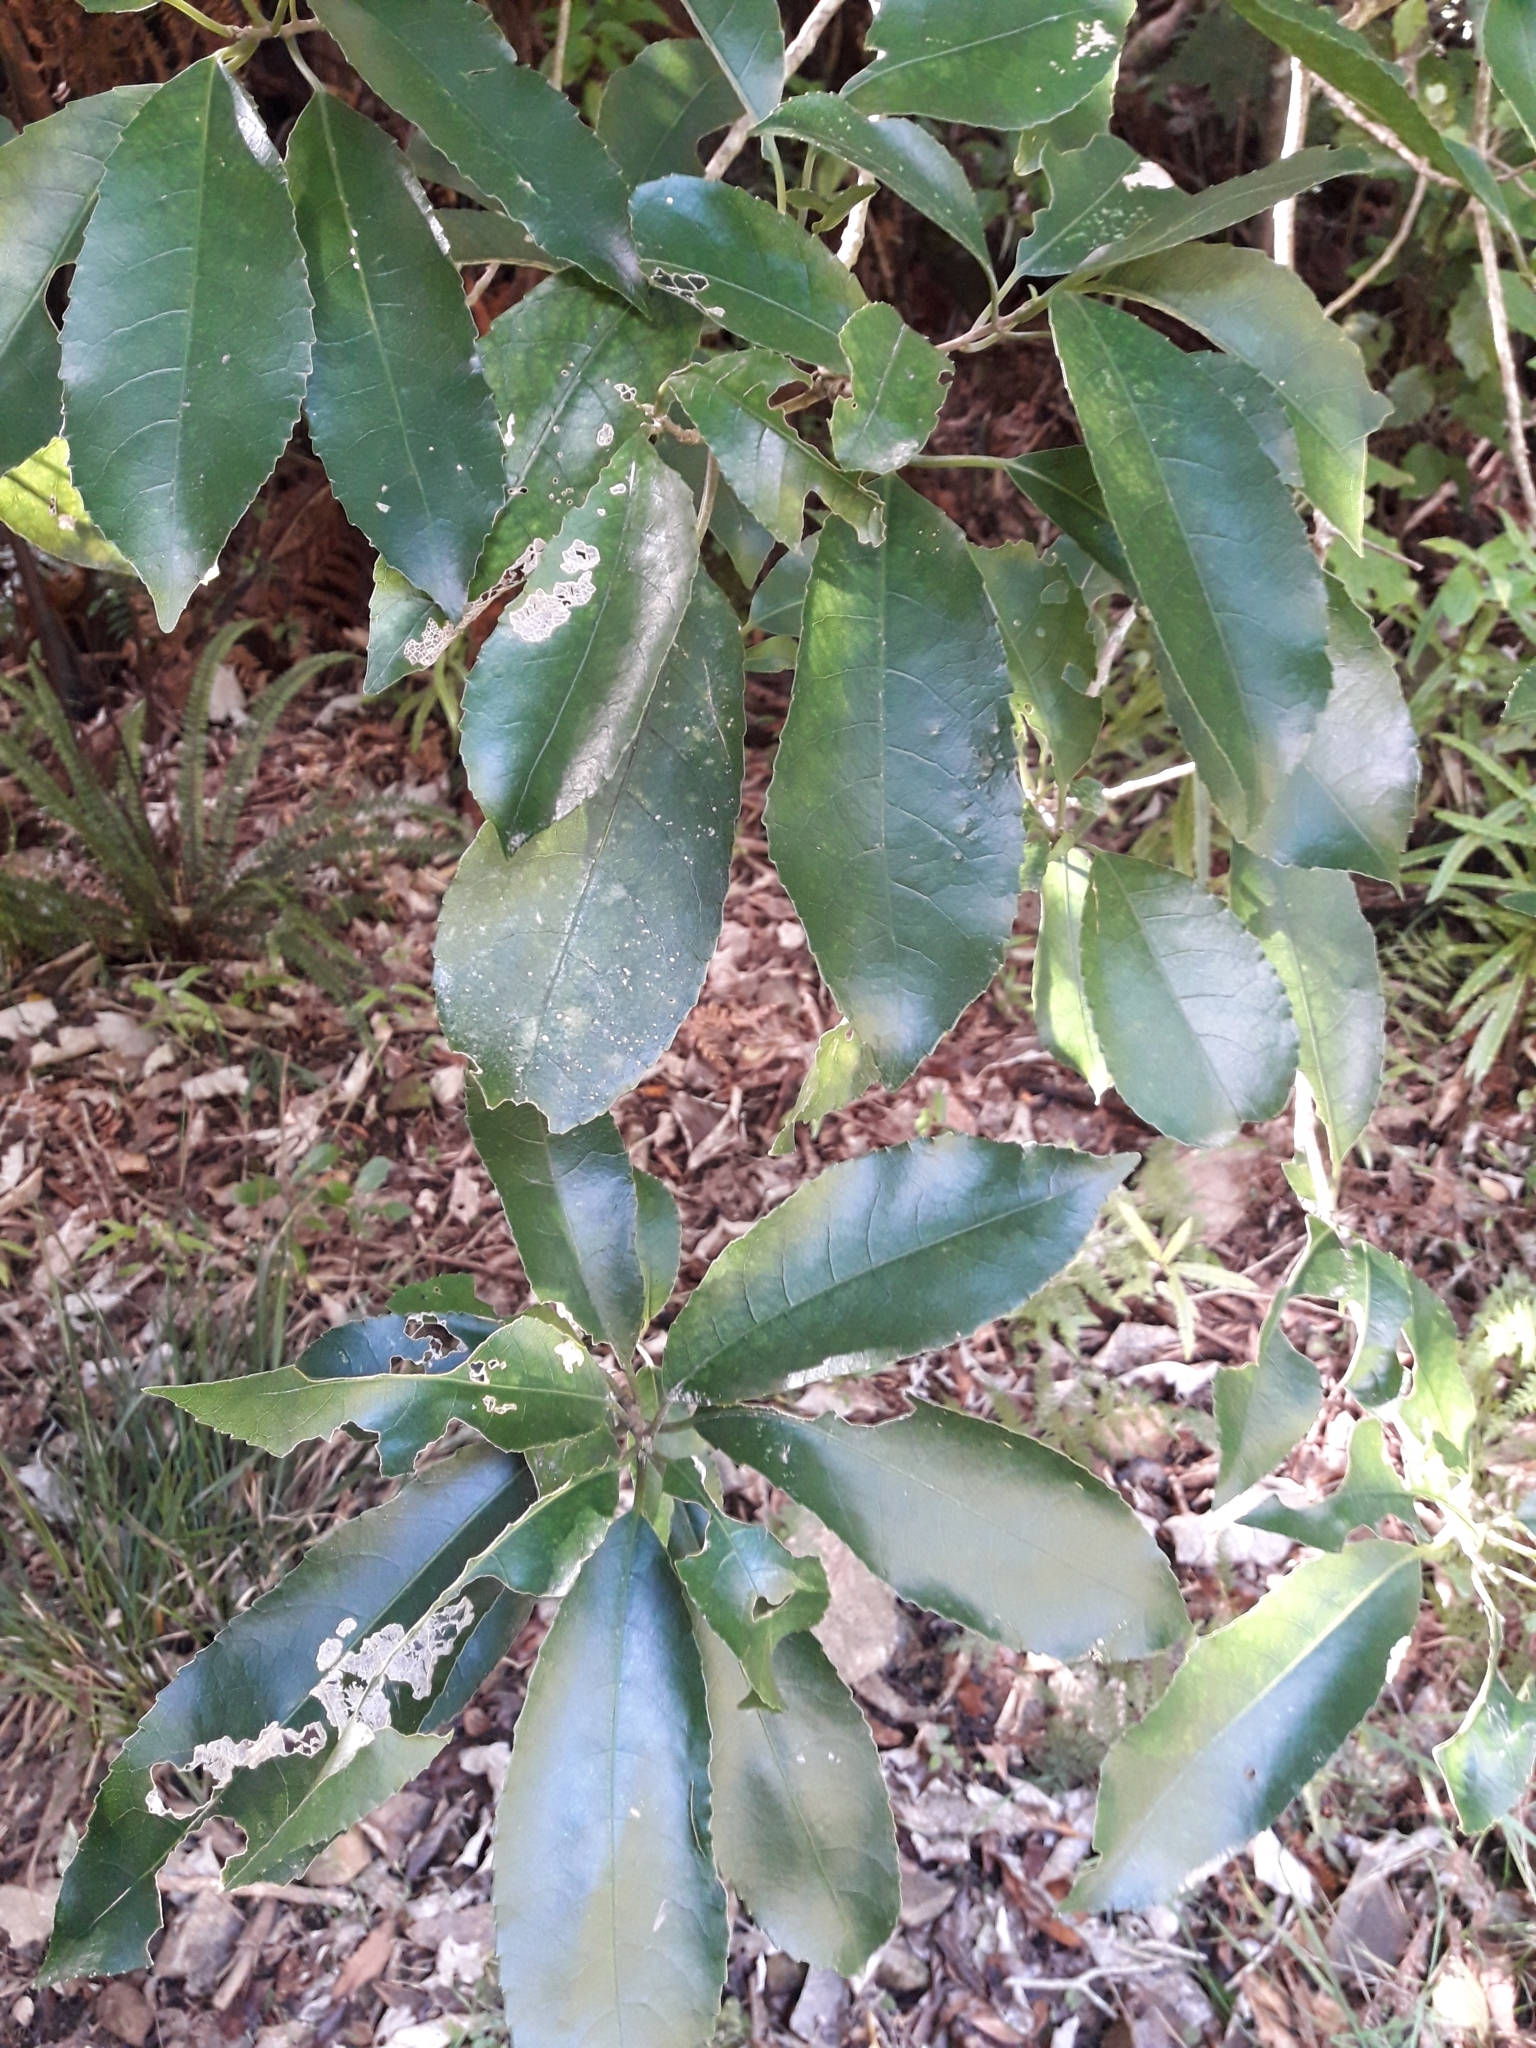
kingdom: Plantae
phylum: Tracheophyta
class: Magnoliopsida
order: Malpighiales
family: Violaceae
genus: Melicytus
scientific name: Melicytus ramiflorus
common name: Mahoe
